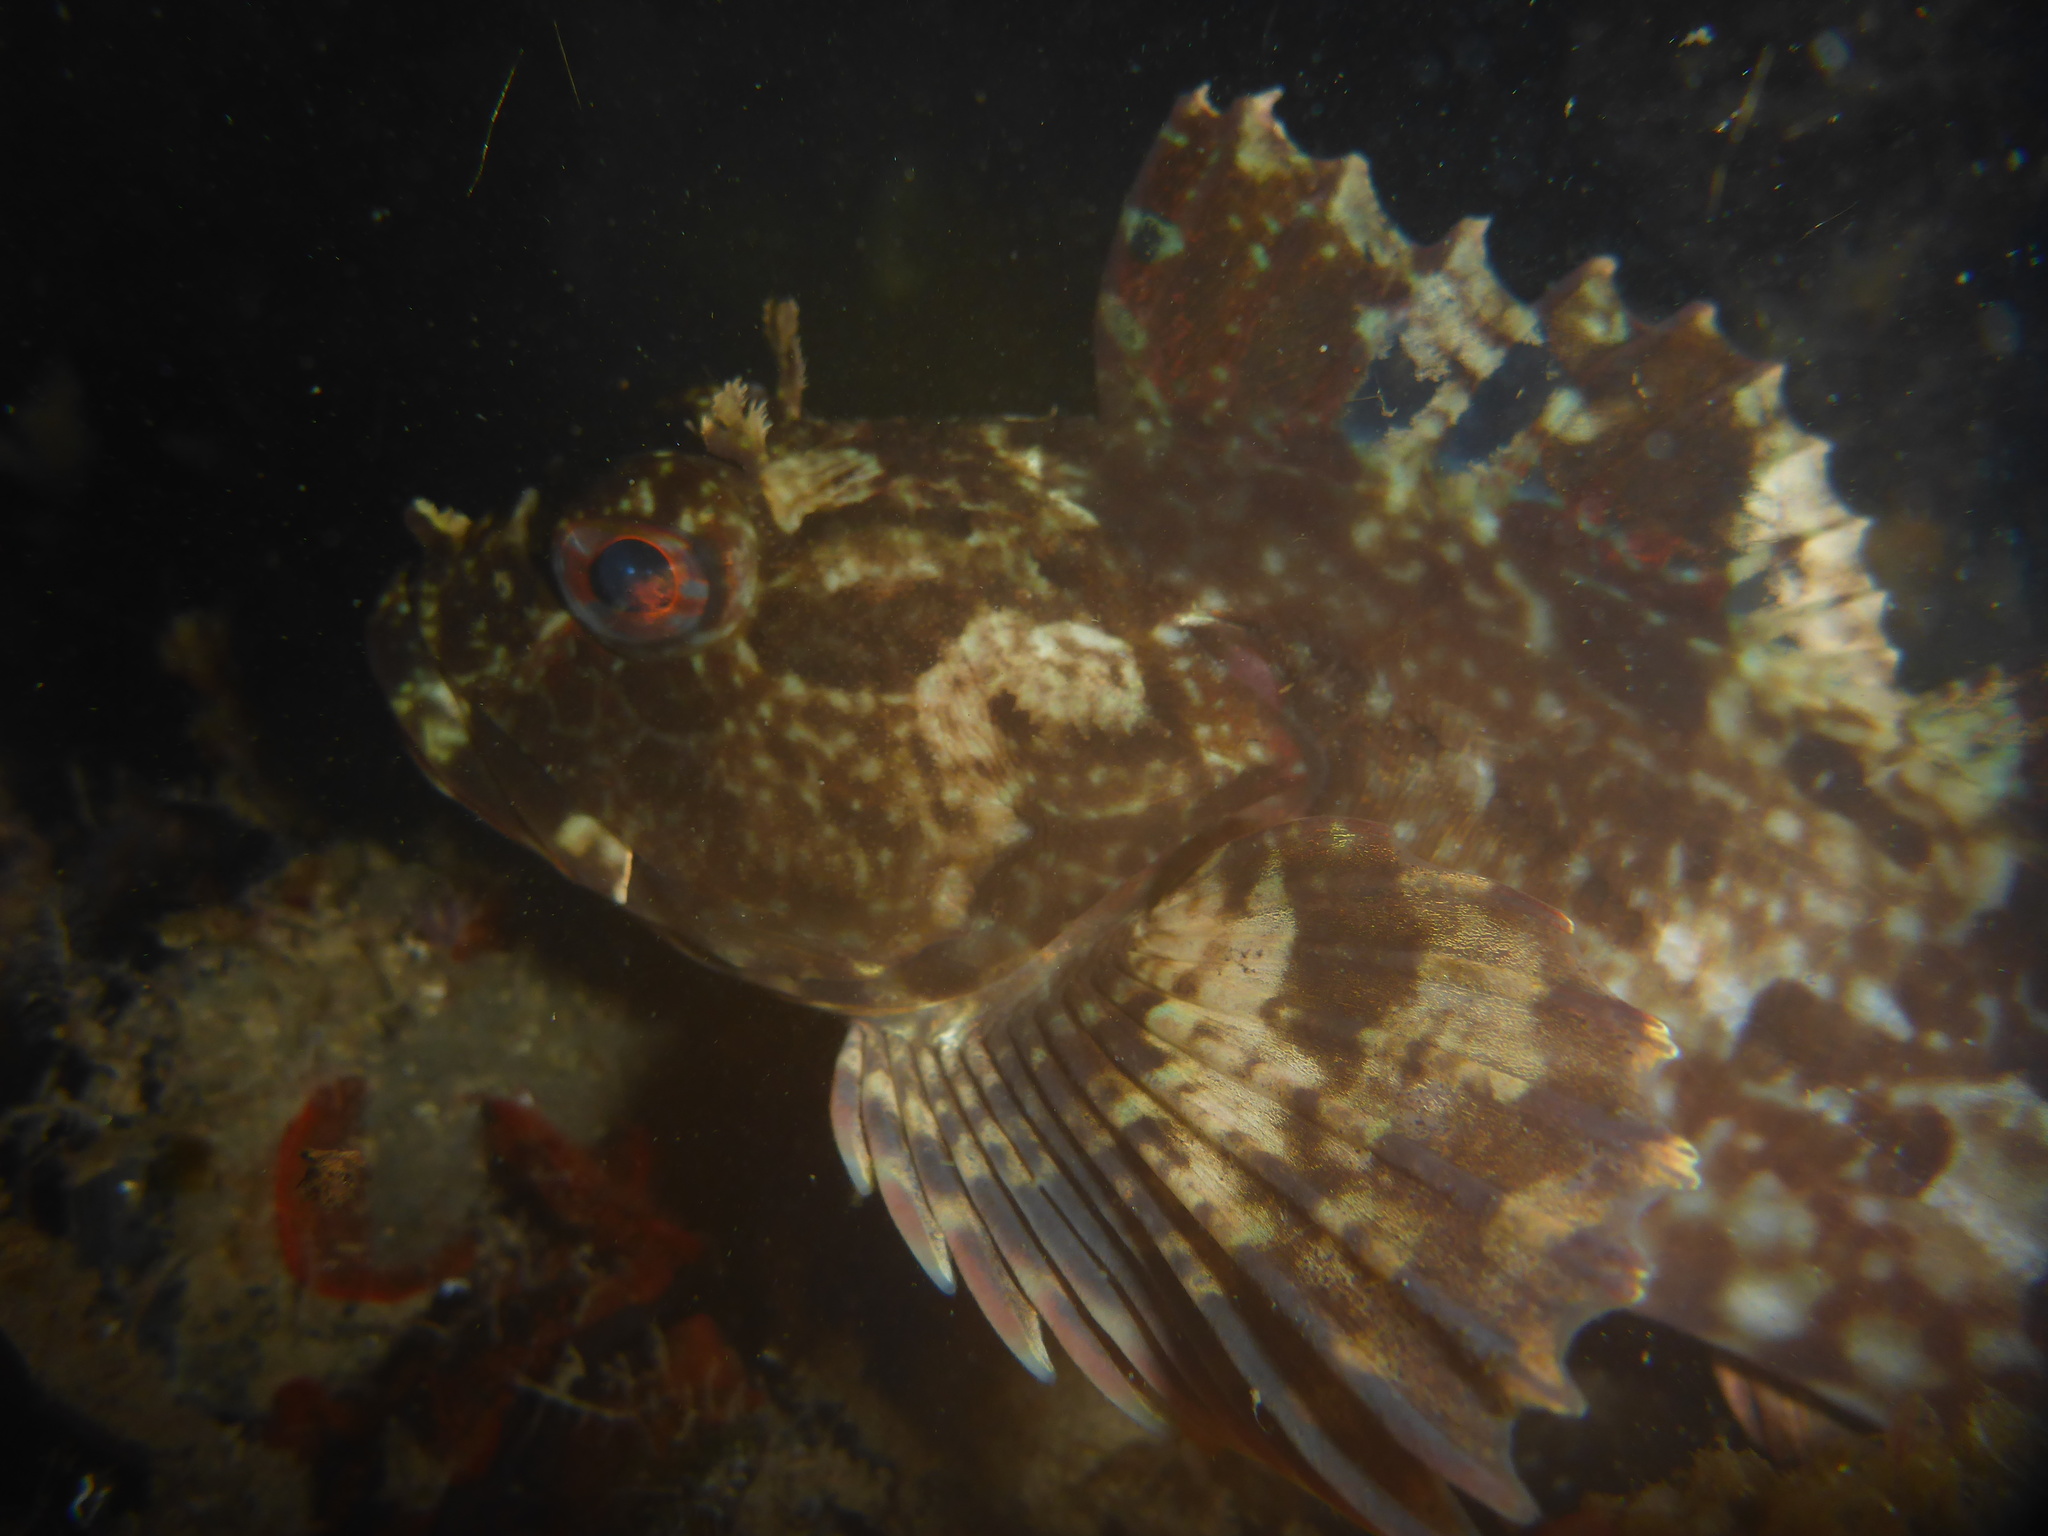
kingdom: Animalia
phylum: Chordata
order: Scorpaeniformes
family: Cottidae
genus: Scorpaenichthys
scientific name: Scorpaenichthys marmoratus
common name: Cabezon
